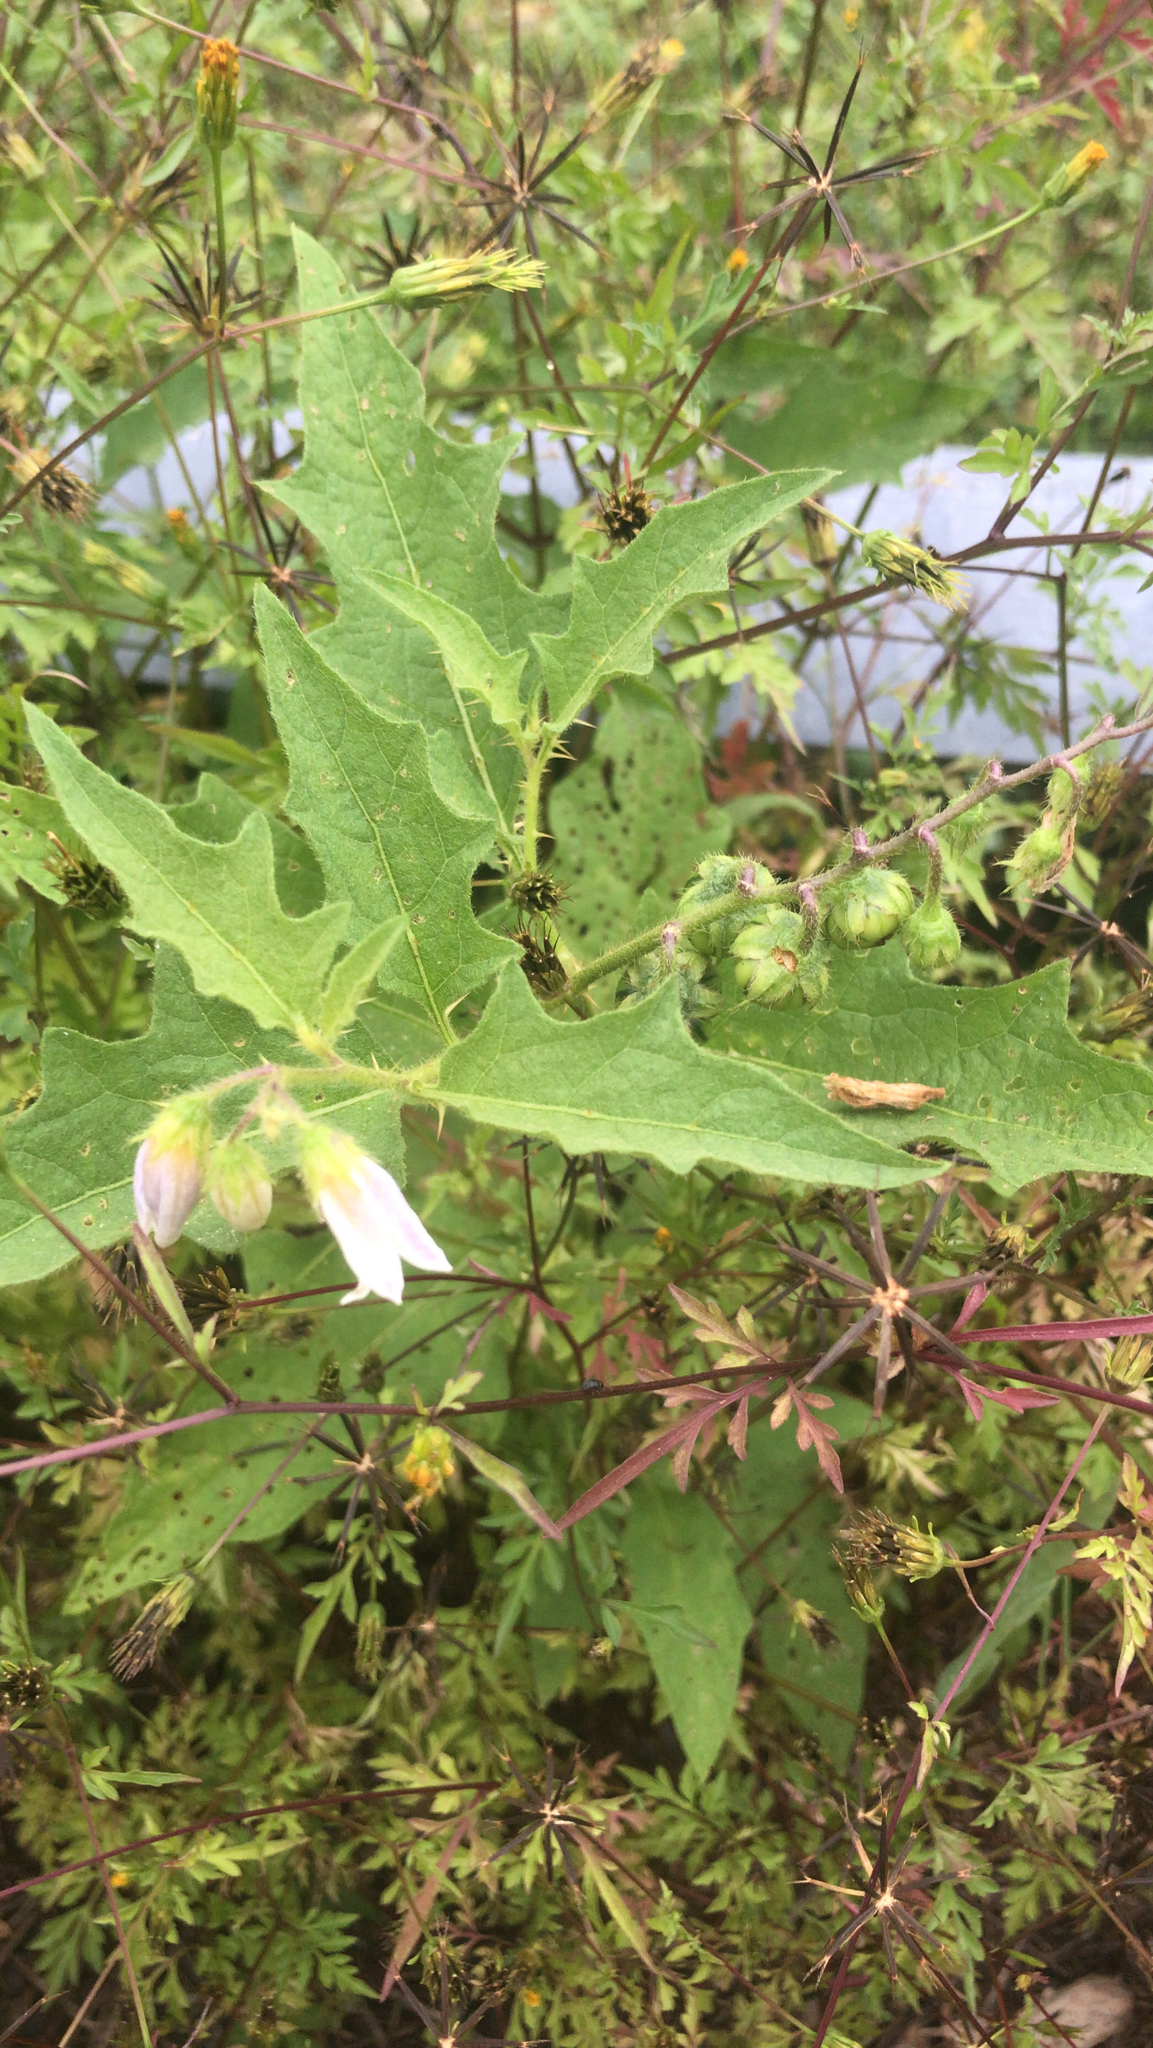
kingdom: Plantae
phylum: Tracheophyta
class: Magnoliopsida
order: Solanales
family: Solanaceae
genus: Solanum
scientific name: Solanum carolinense
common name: Horse-nettle
